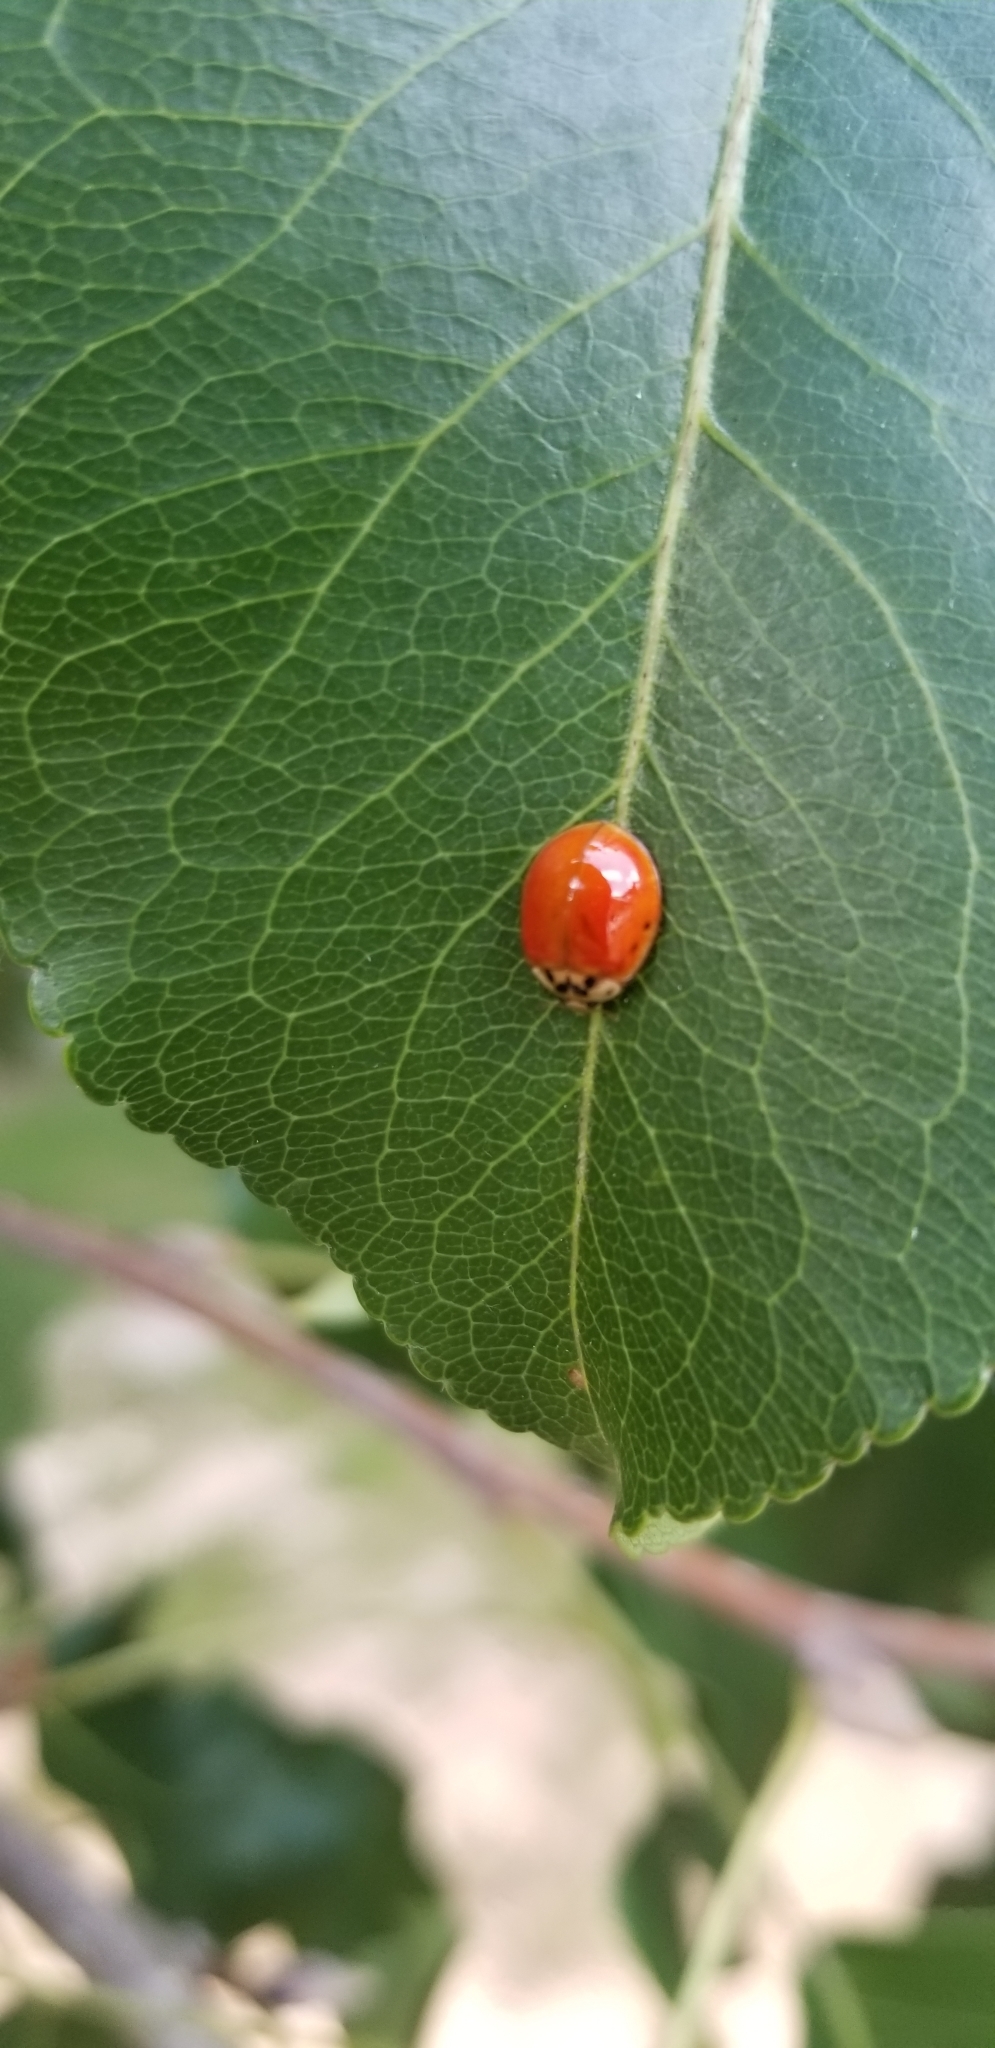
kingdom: Animalia
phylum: Arthropoda
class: Insecta
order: Coleoptera
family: Coccinellidae
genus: Harmonia
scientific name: Harmonia axyridis
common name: Harlequin ladybird
